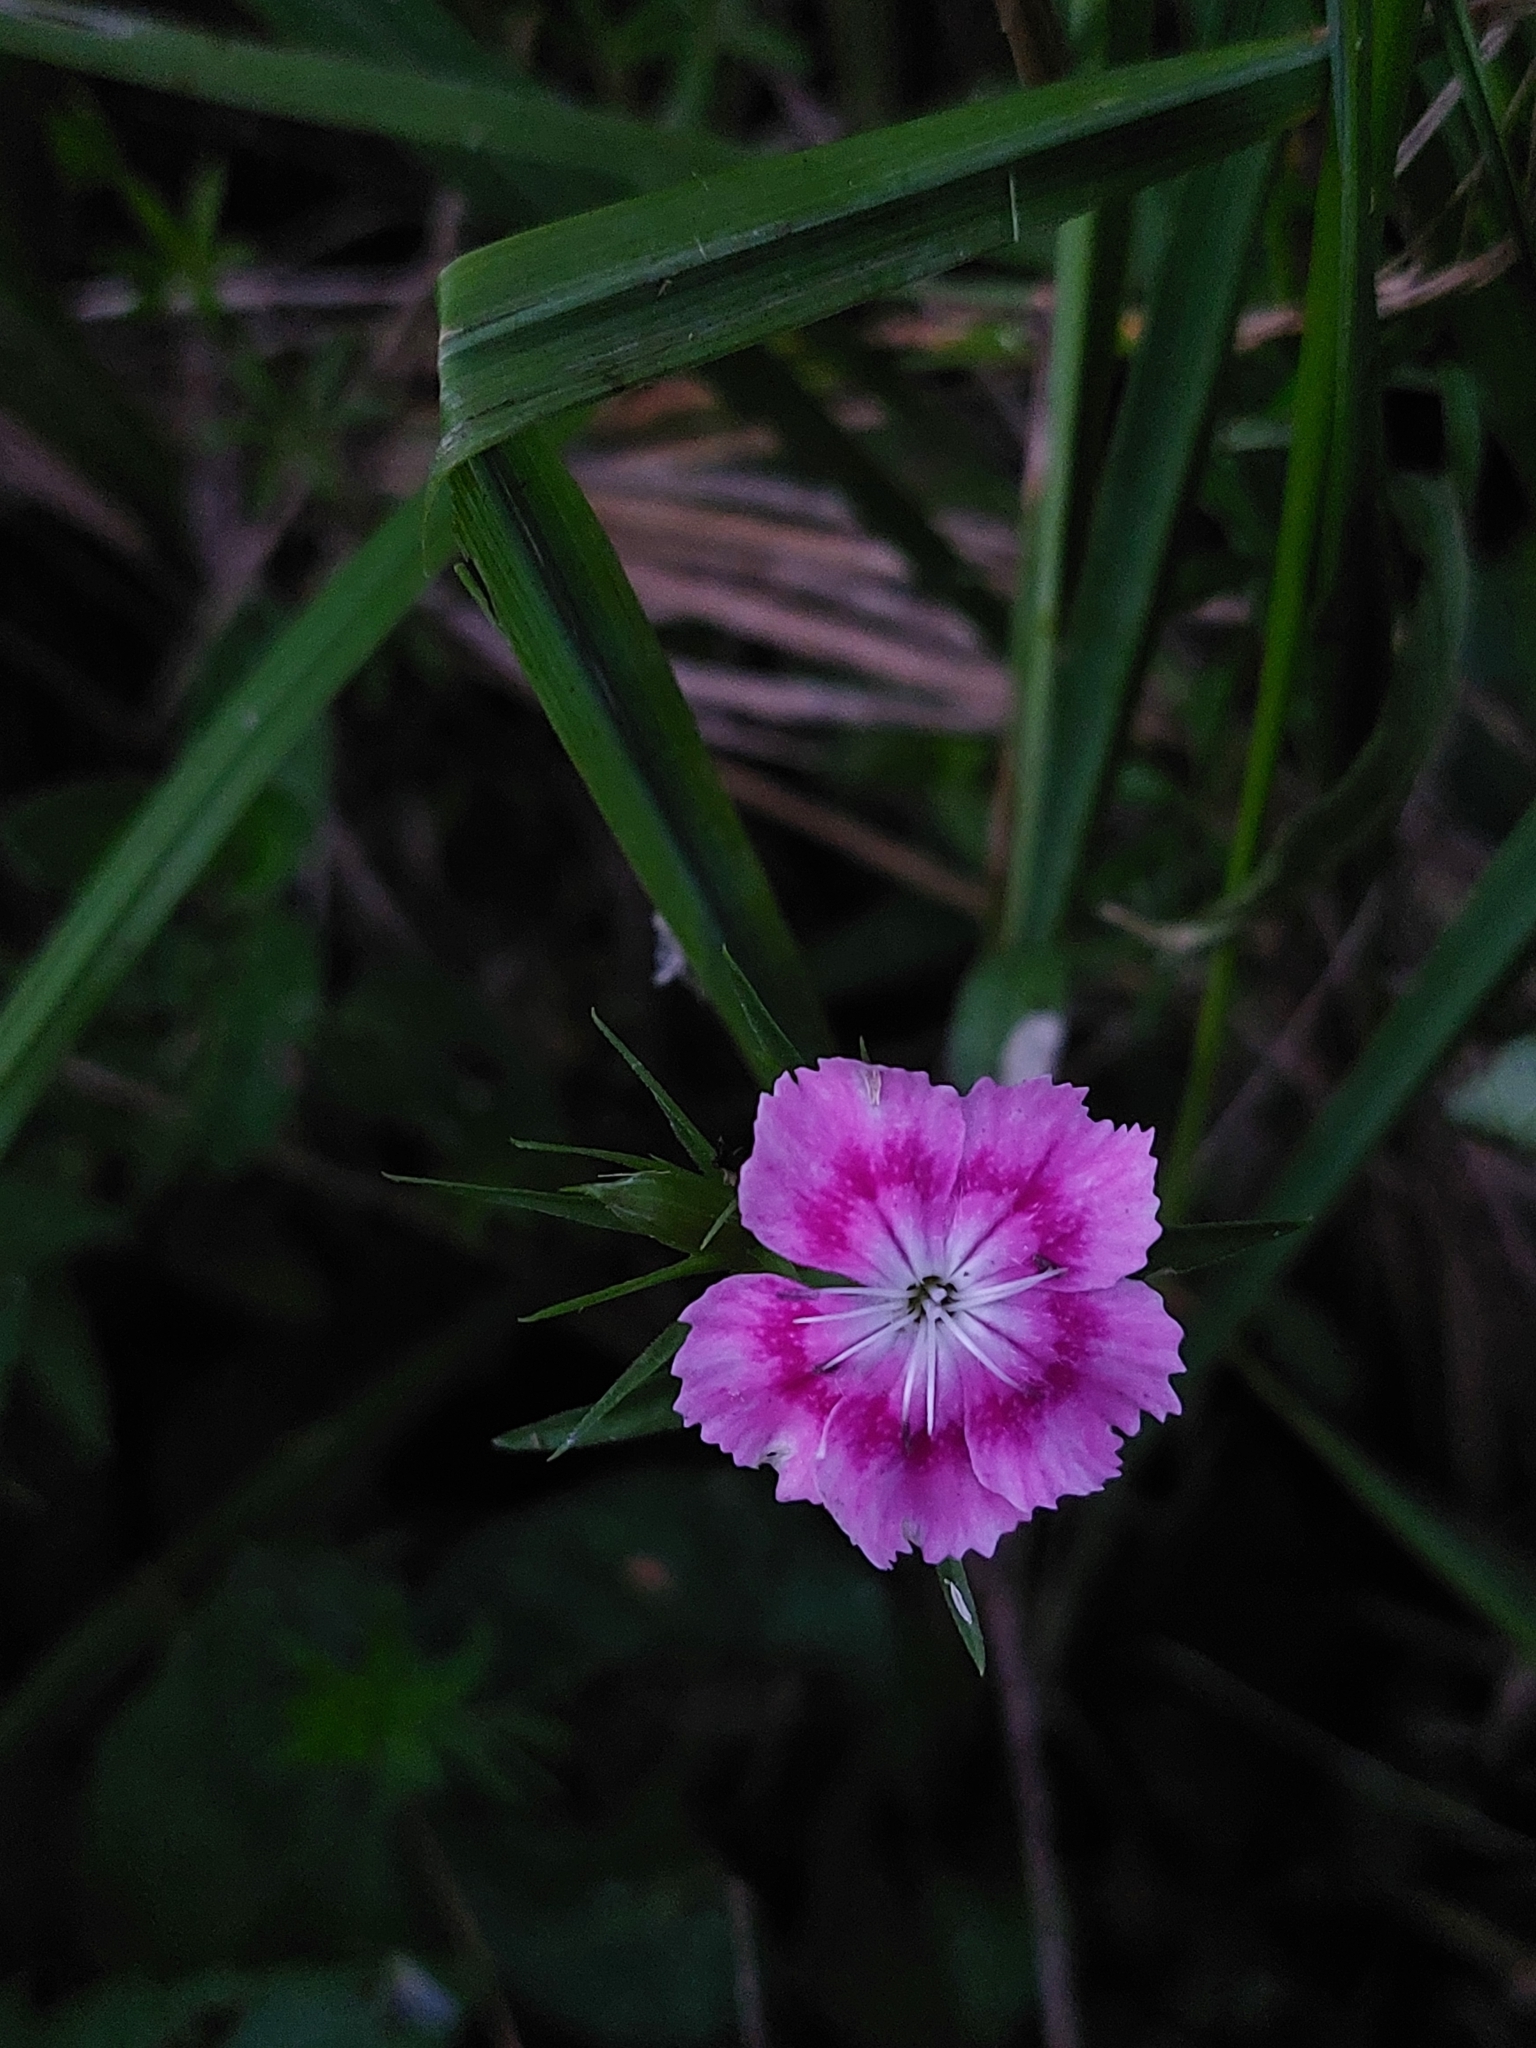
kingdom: Plantae
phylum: Tracheophyta
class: Magnoliopsida
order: Caryophyllales
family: Caryophyllaceae
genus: Dianthus
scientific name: Dianthus barbatus
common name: Sweet-william
